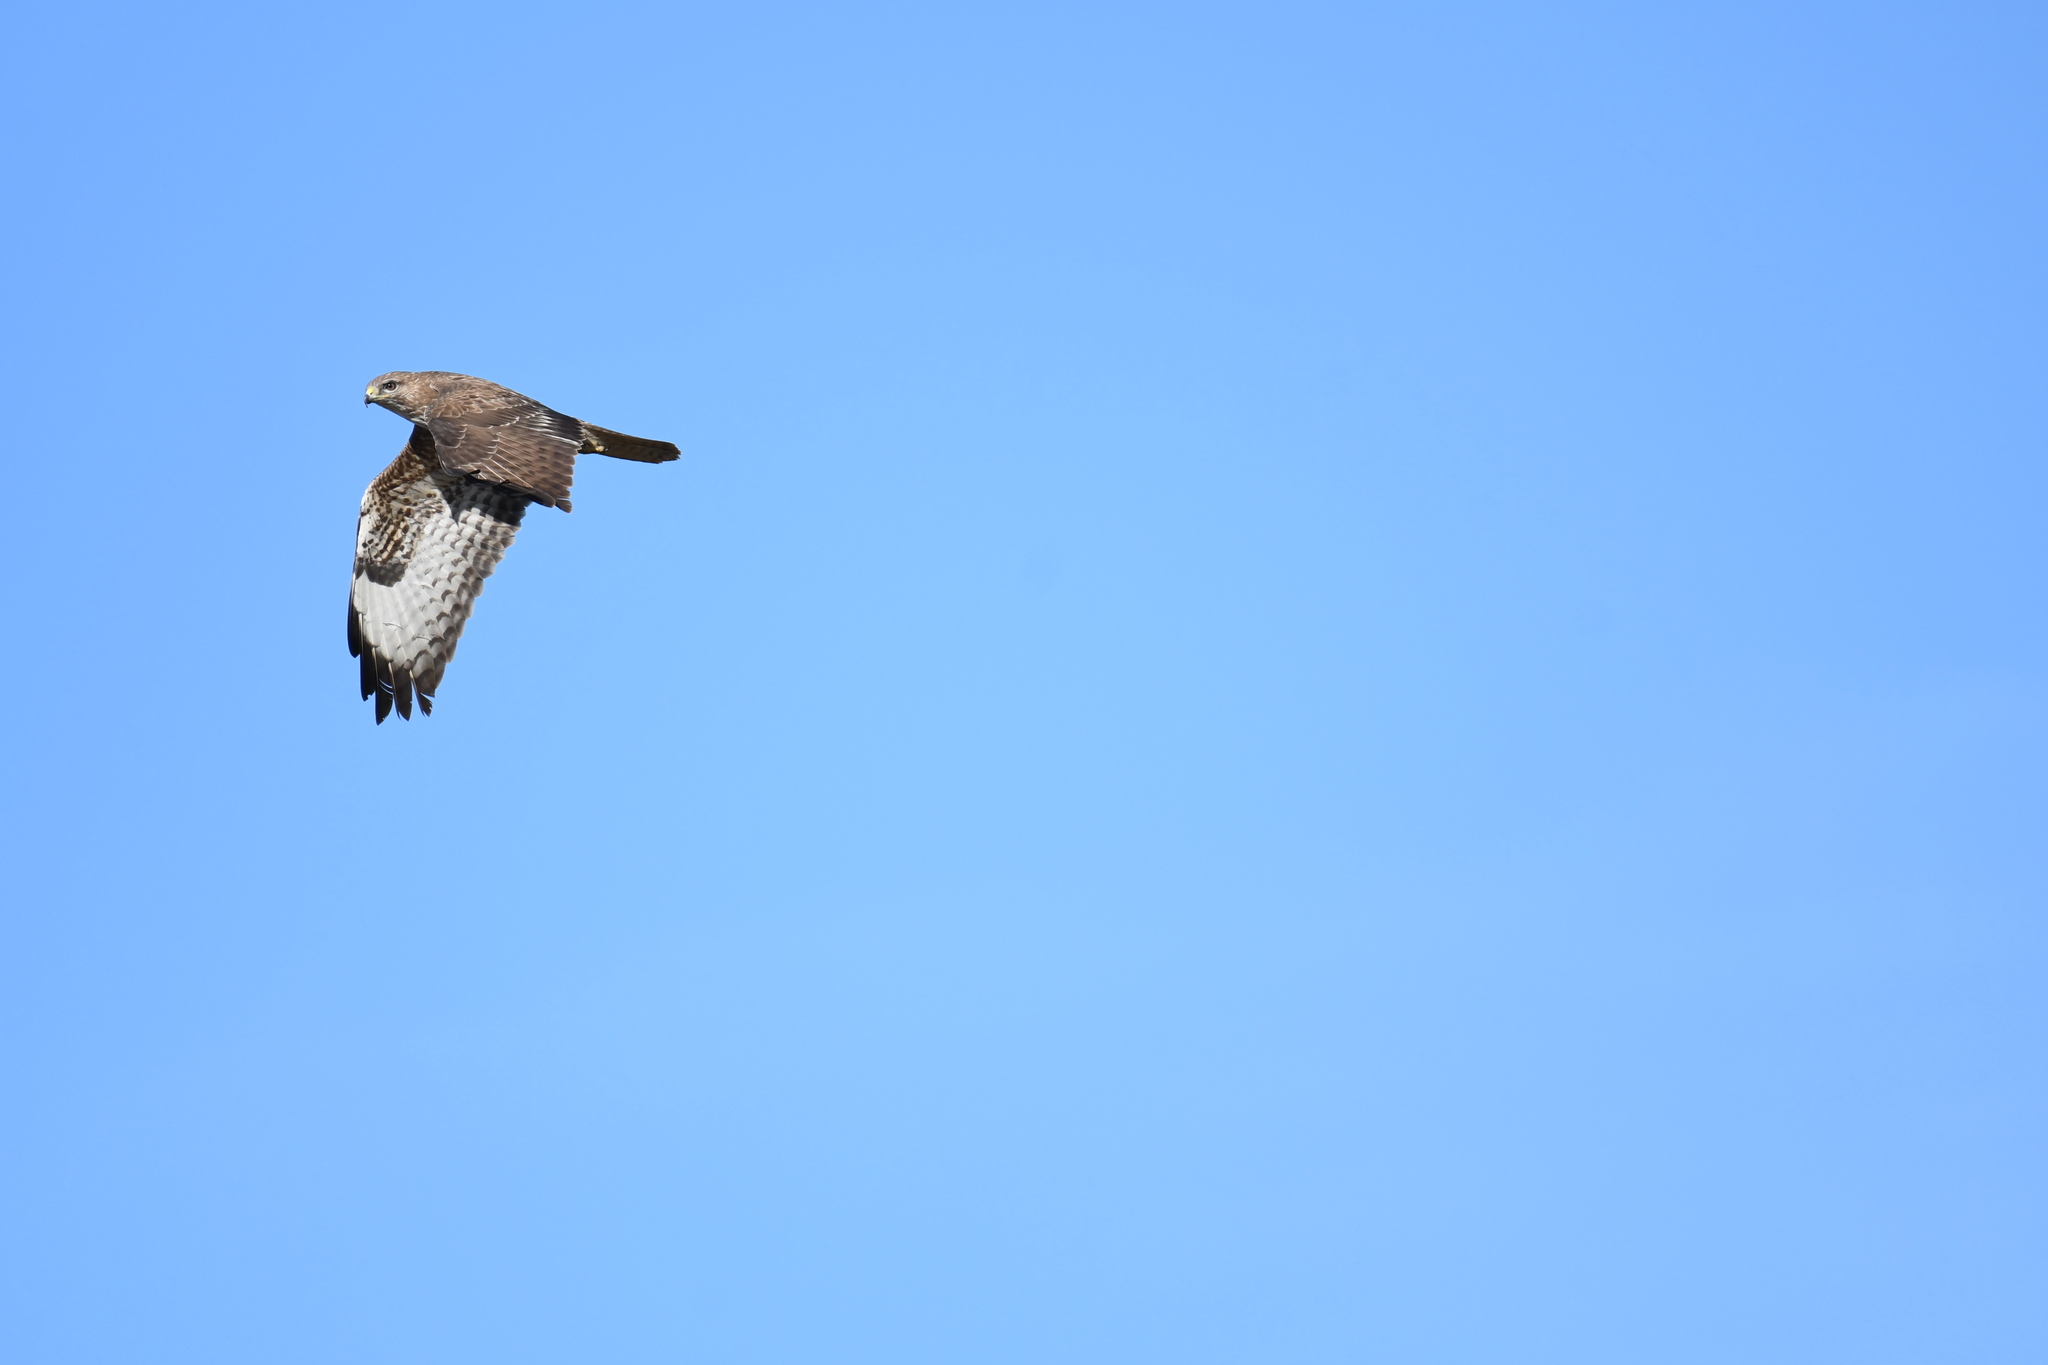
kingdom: Animalia
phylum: Chordata
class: Aves
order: Accipitriformes
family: Accipitridae
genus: Buteo
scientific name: Buteo buteo
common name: Common buzzard
